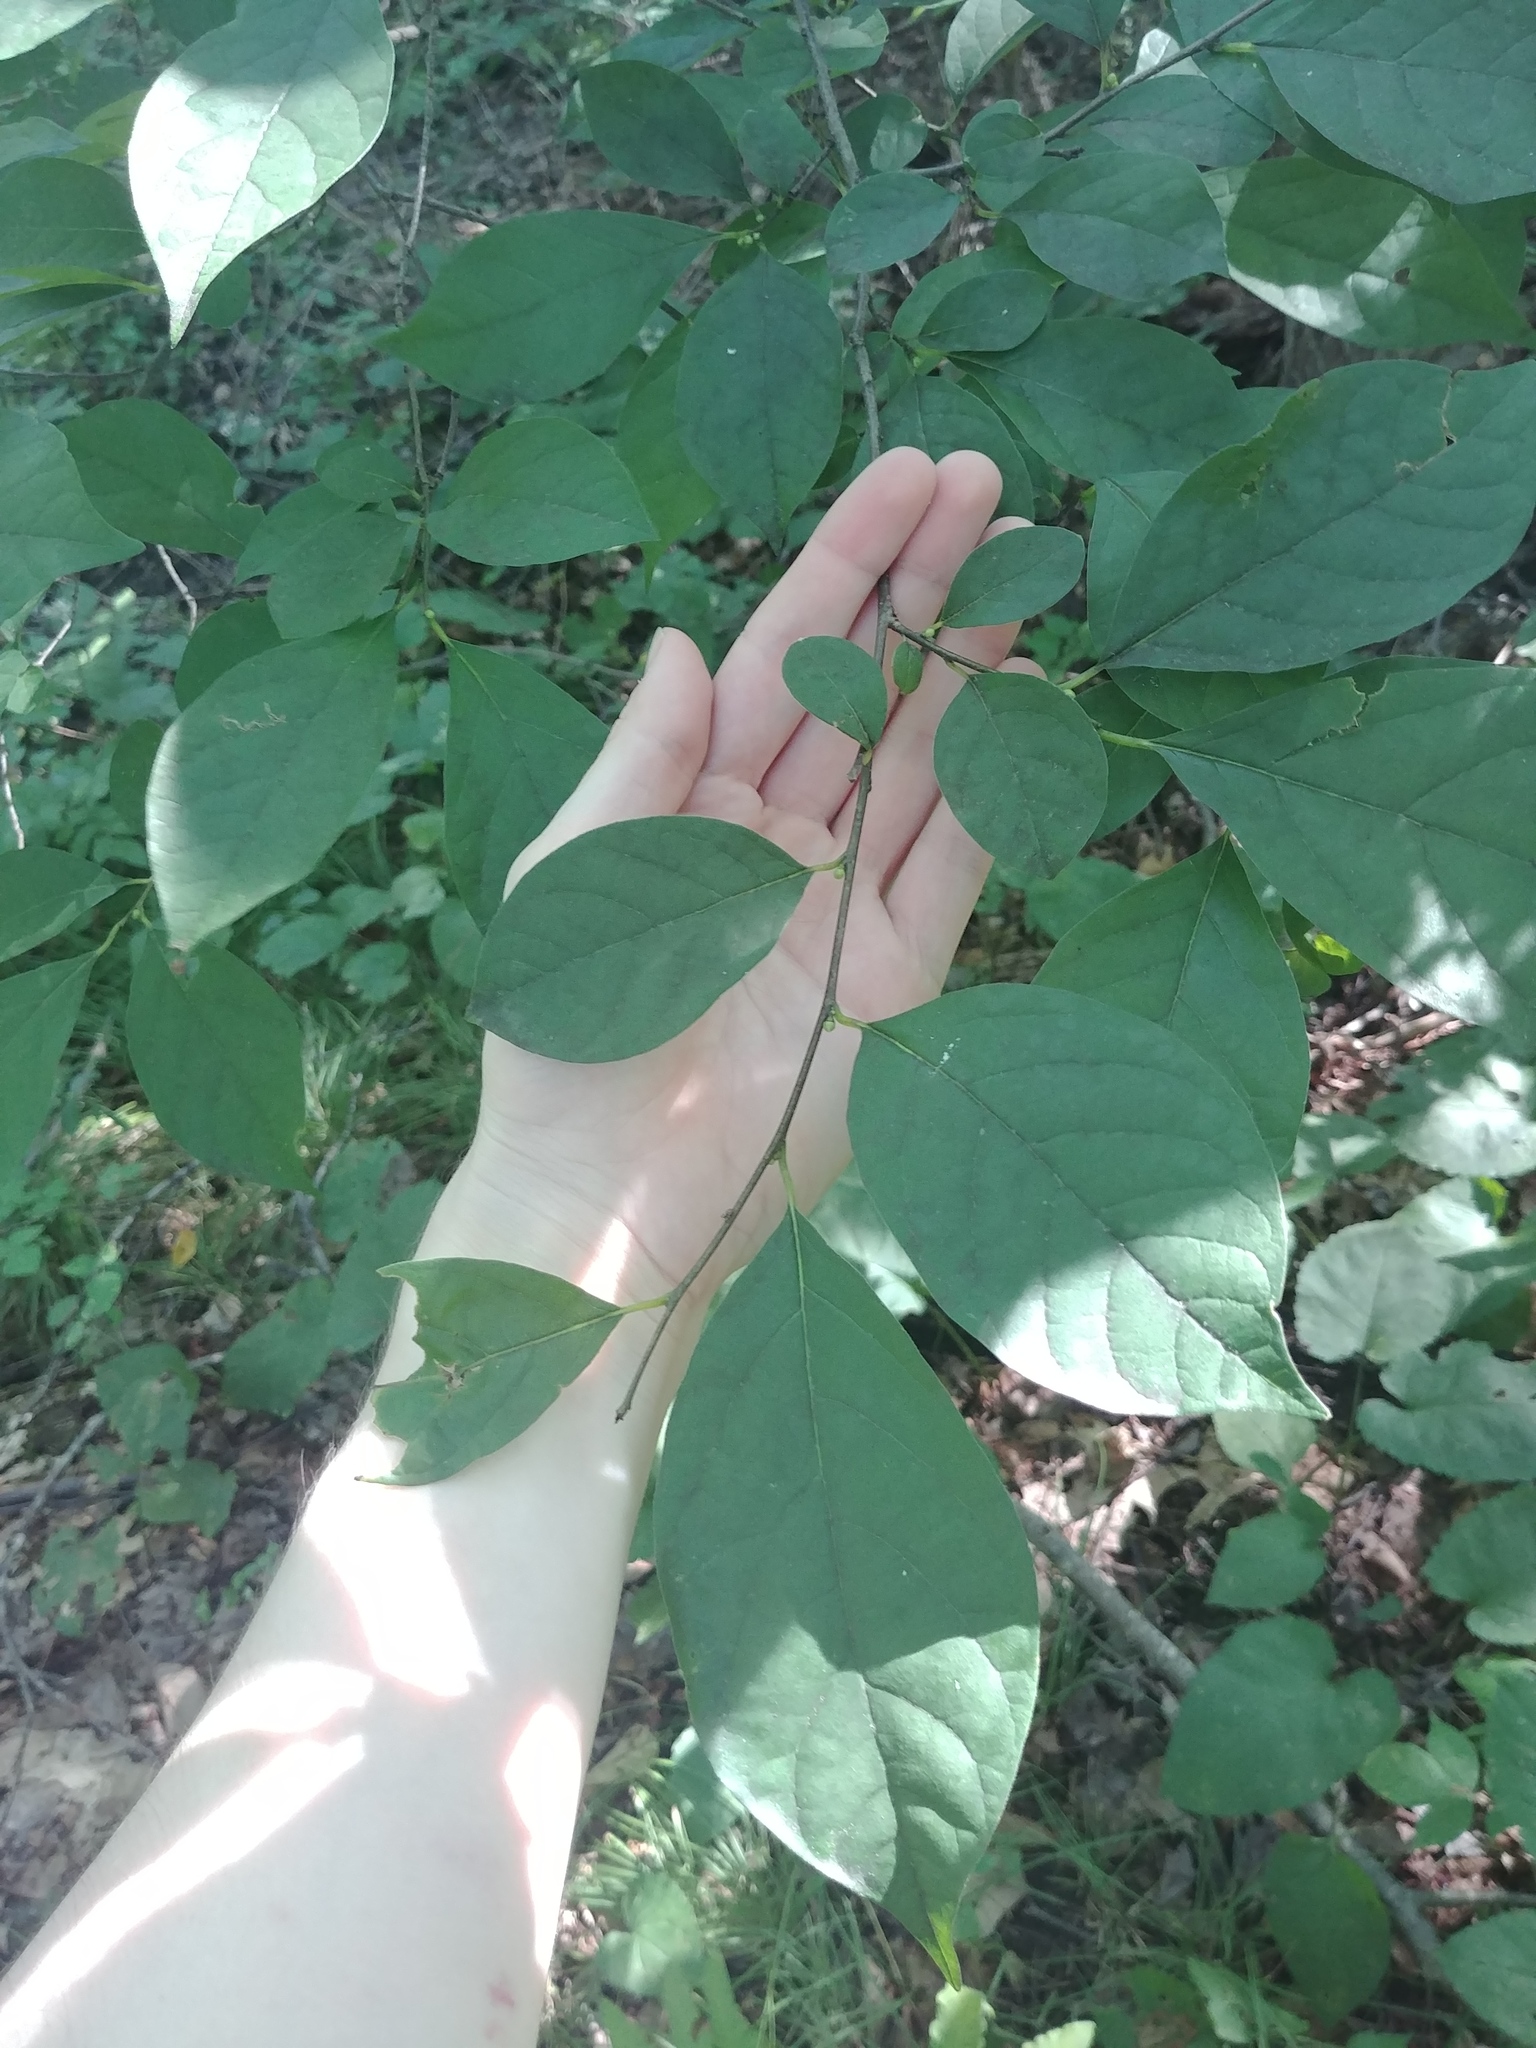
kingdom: Plantae
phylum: Tracheophyta
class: Magnoliopsida
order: Laurales
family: Lauraceae
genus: Lindera
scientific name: Lindera benzoin
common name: Spicebush
